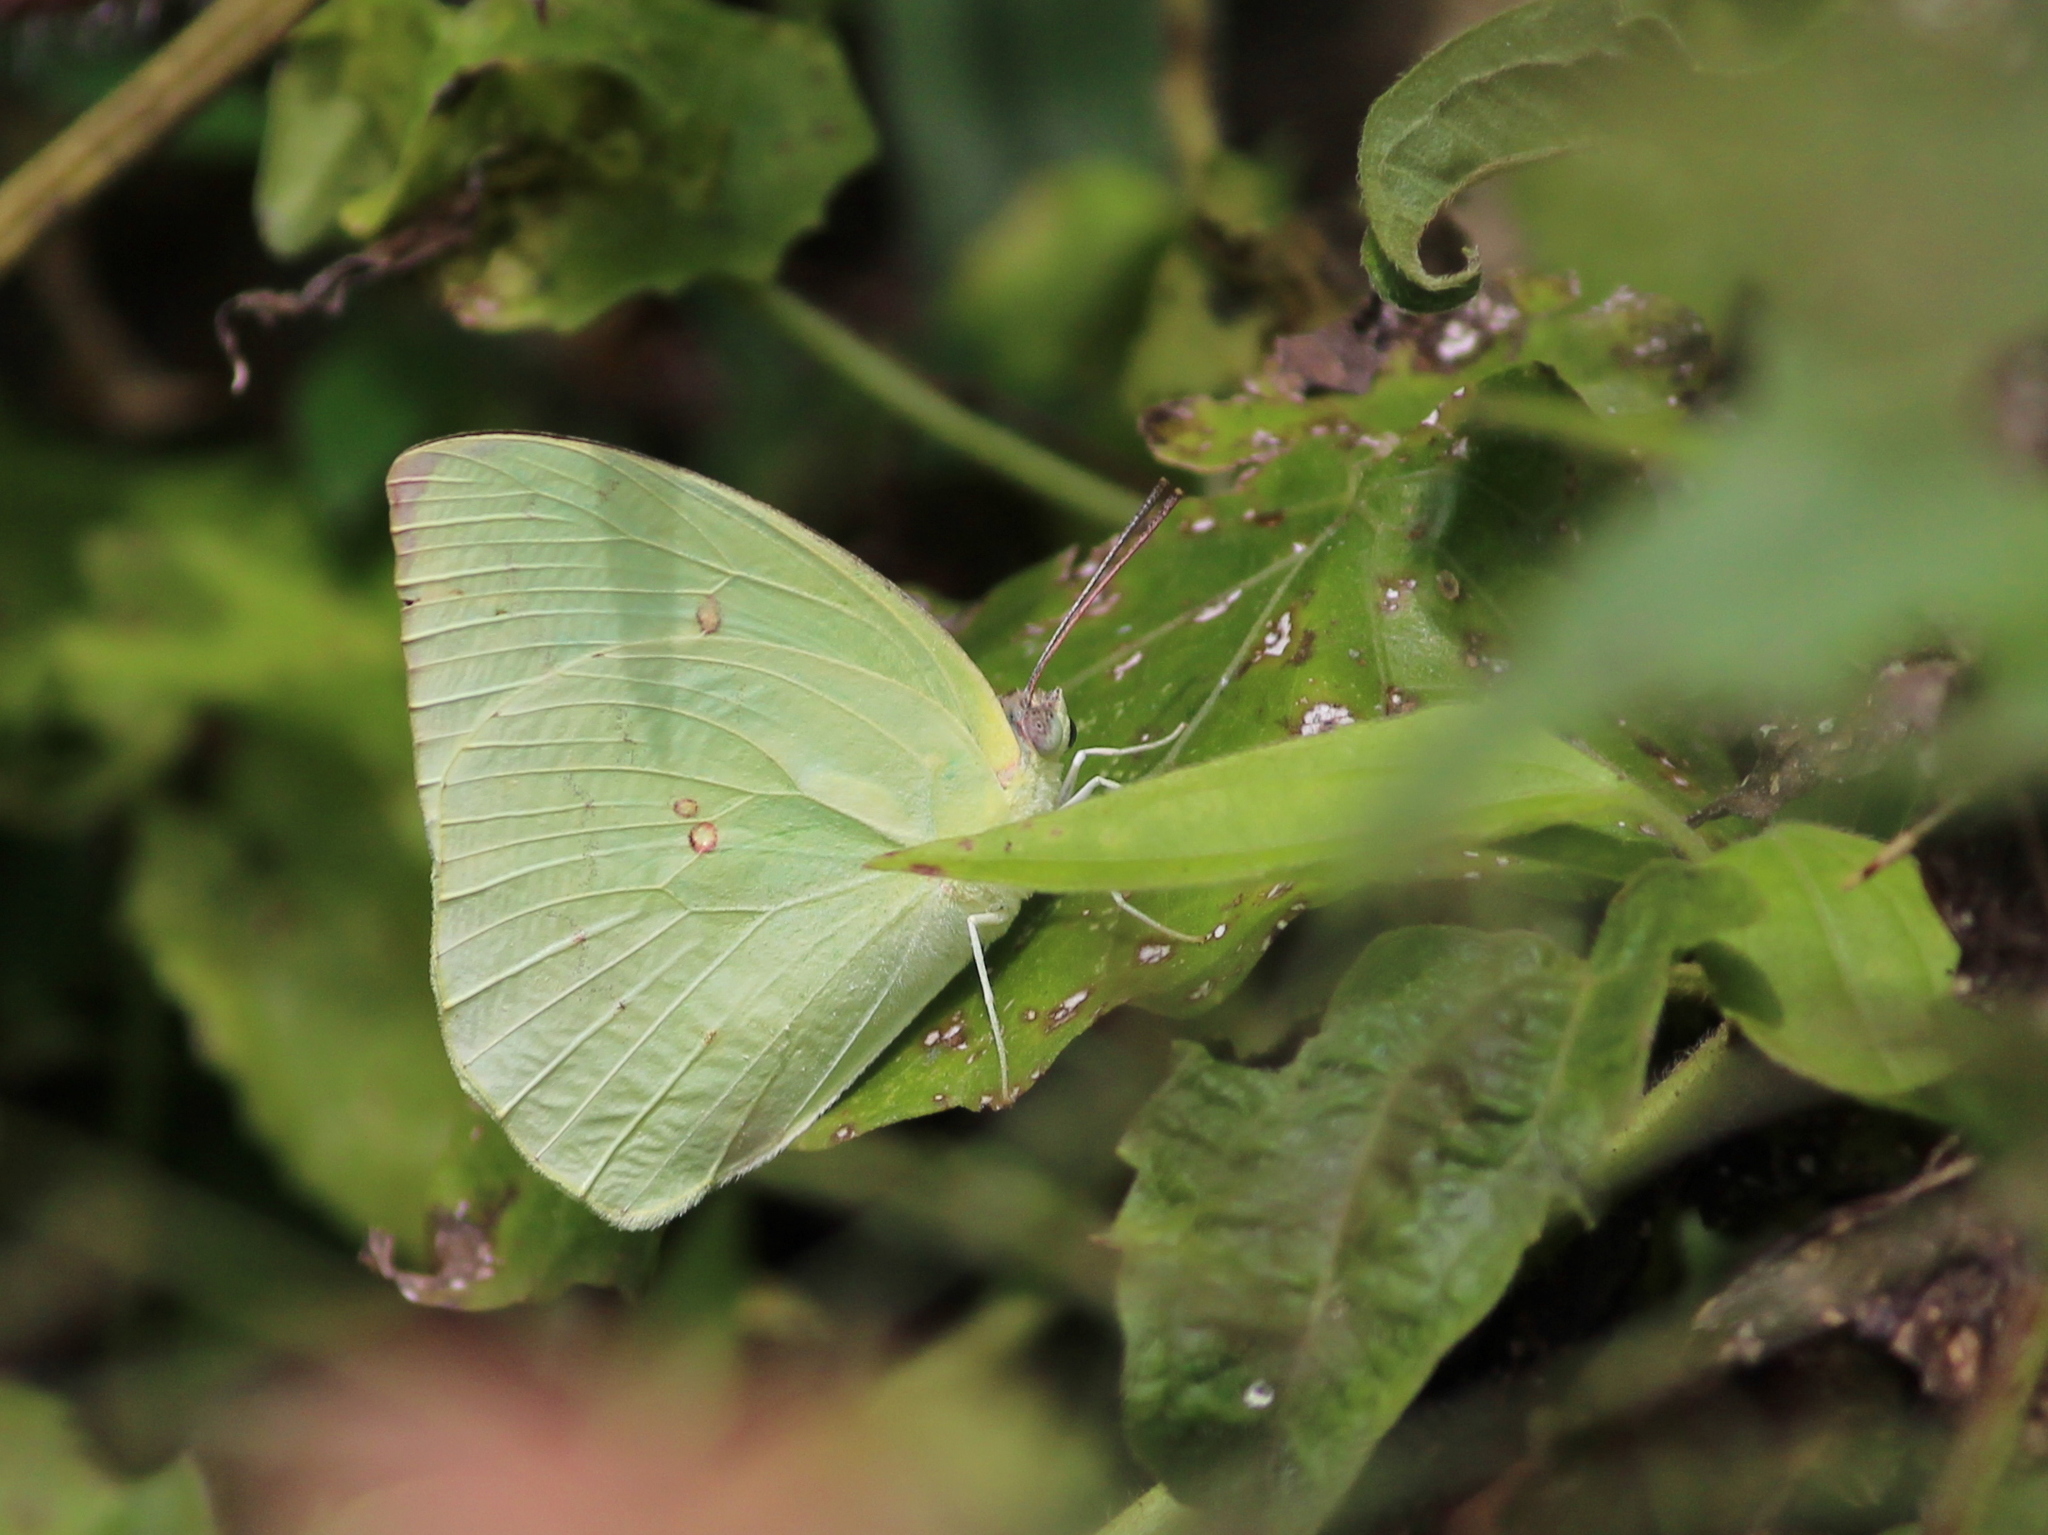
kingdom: Animalia
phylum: Arthropoda
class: Insecta
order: Lepidoptera
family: Pieridae
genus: Catopsilia
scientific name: Catopsilia pomona
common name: Common emigrant
